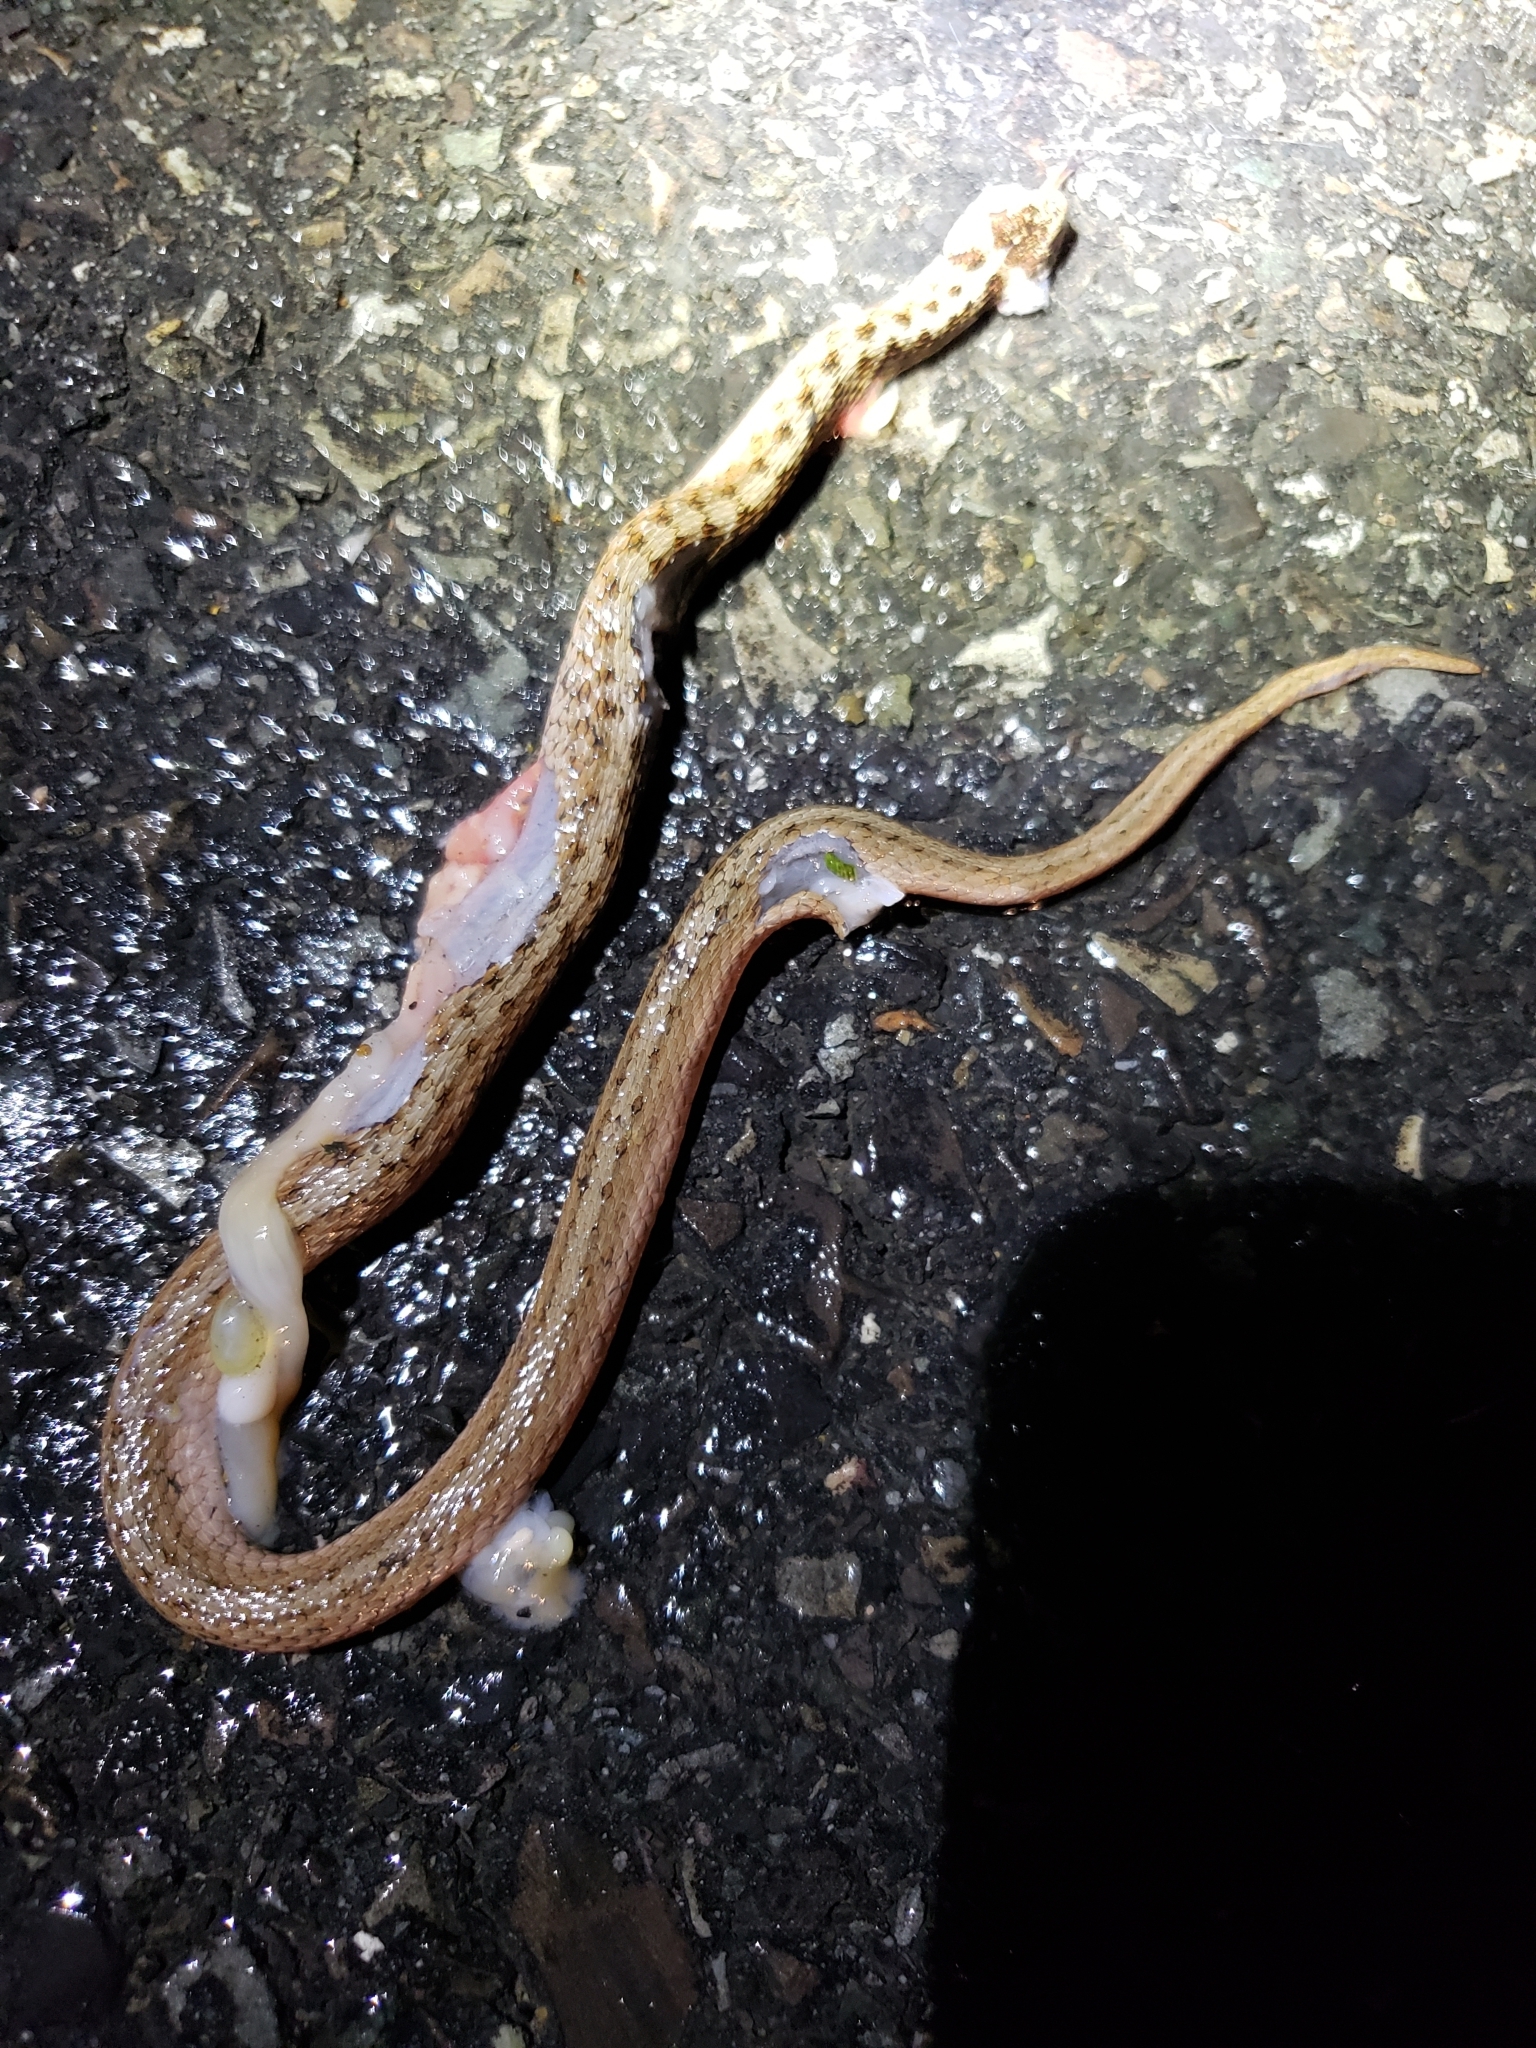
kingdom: Animalia
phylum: Chordata
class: Squamata
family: Colubridae
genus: Storeria
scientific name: Storeria dekayi
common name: (dekay’s) brown snake
